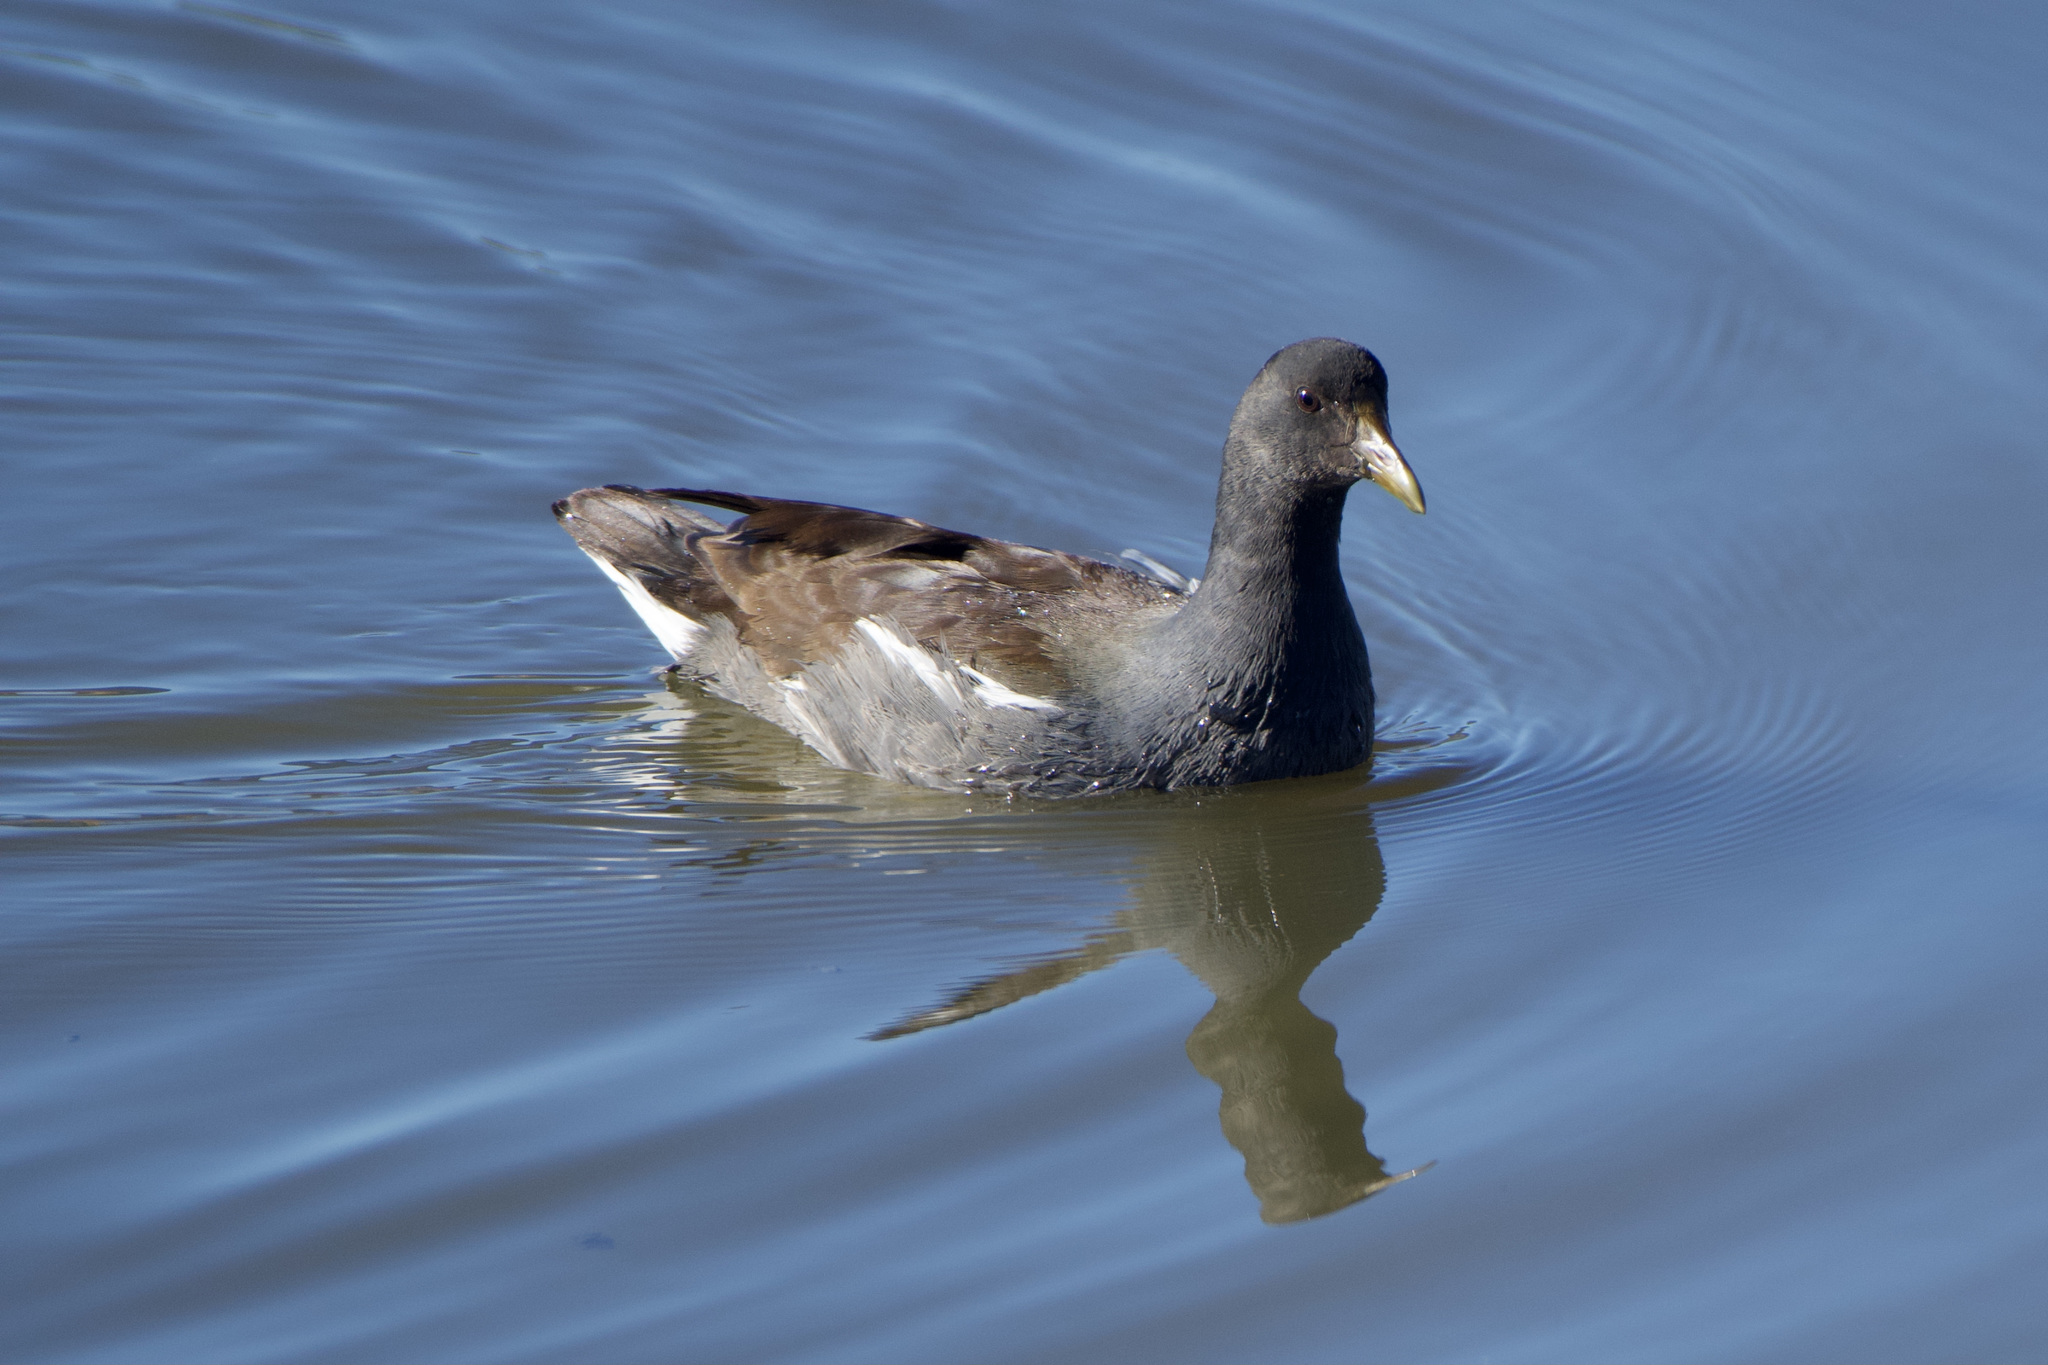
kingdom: Animalia
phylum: Chordata
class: Aves
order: Gruiformes
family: Rallidae
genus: Gallinula
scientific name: Gallinula chloropus
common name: Common moorhen
